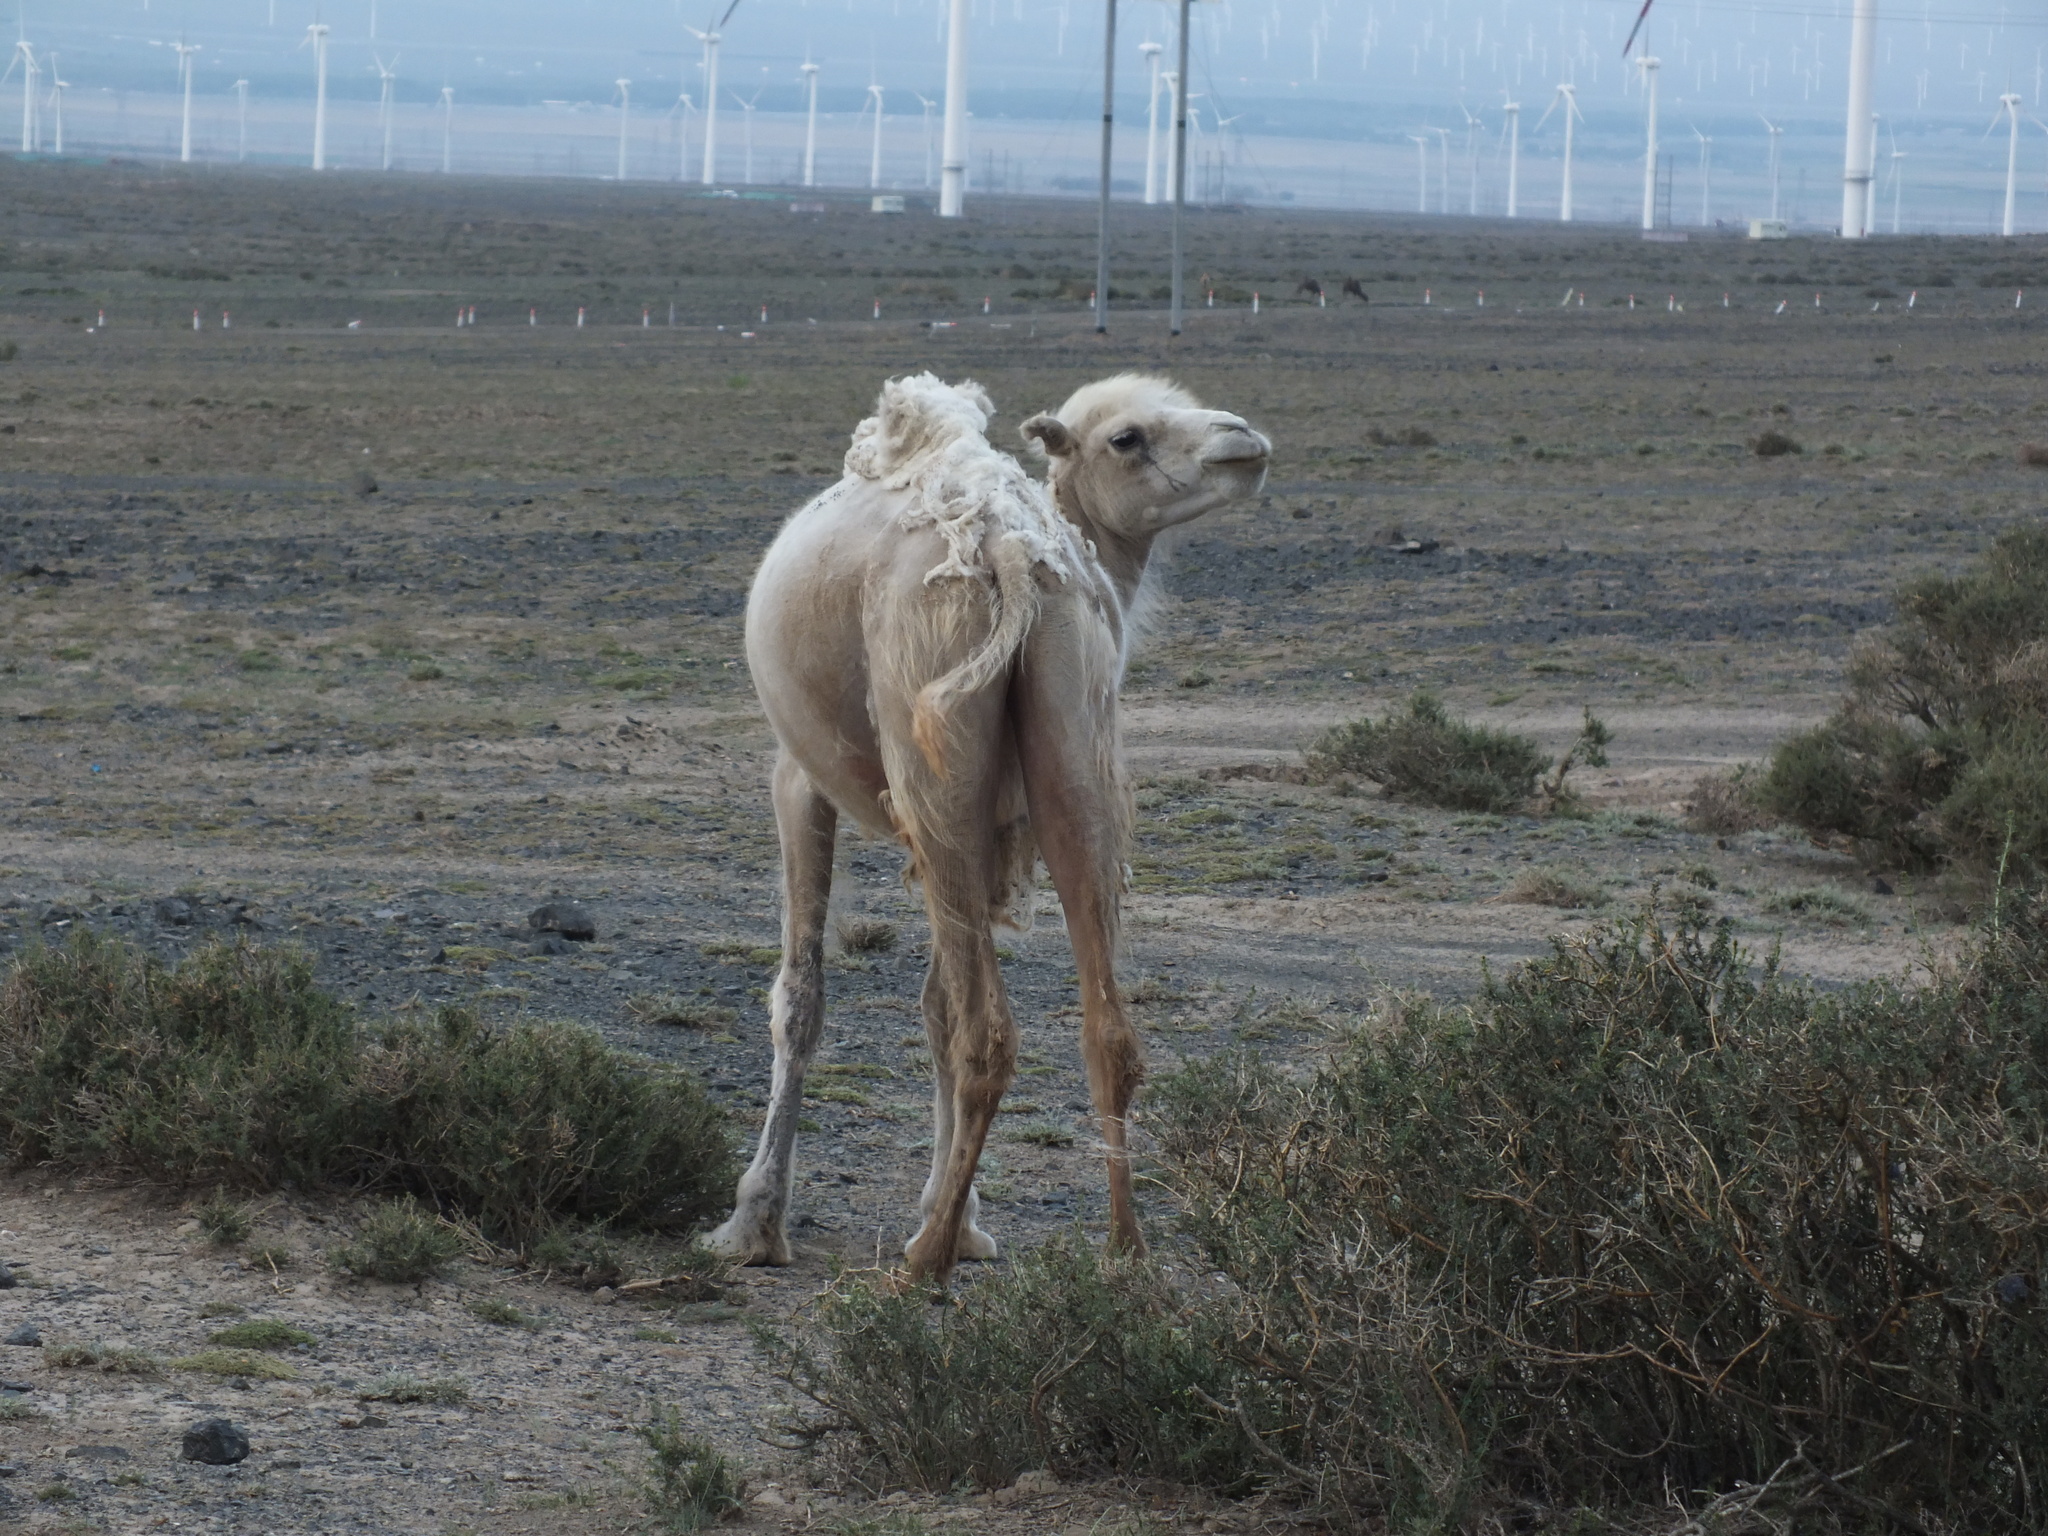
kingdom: Animalia
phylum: Chordata
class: Mammalia
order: Artiodactyla
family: Camelidae
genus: Camelus
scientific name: Camelus bactrianus
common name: Bactrian camel
